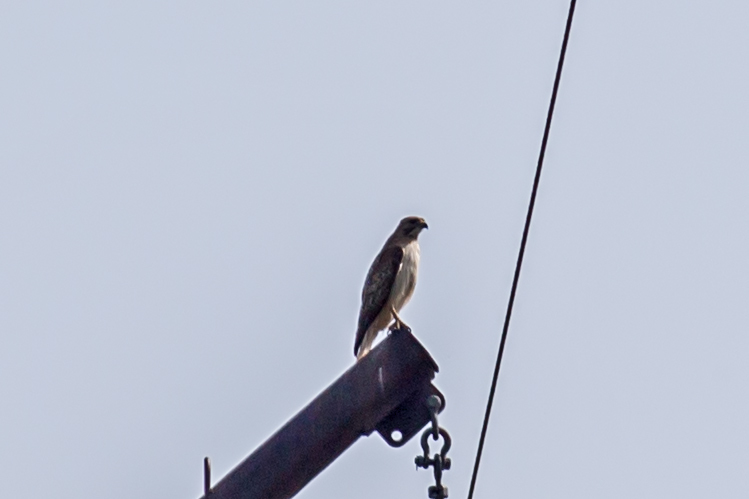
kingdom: Animalia
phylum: Chordata
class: Aves
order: Accipitriformes
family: Accipitridae
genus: Buteo
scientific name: Buteo jamaicensis
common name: Red-tailed hawk
